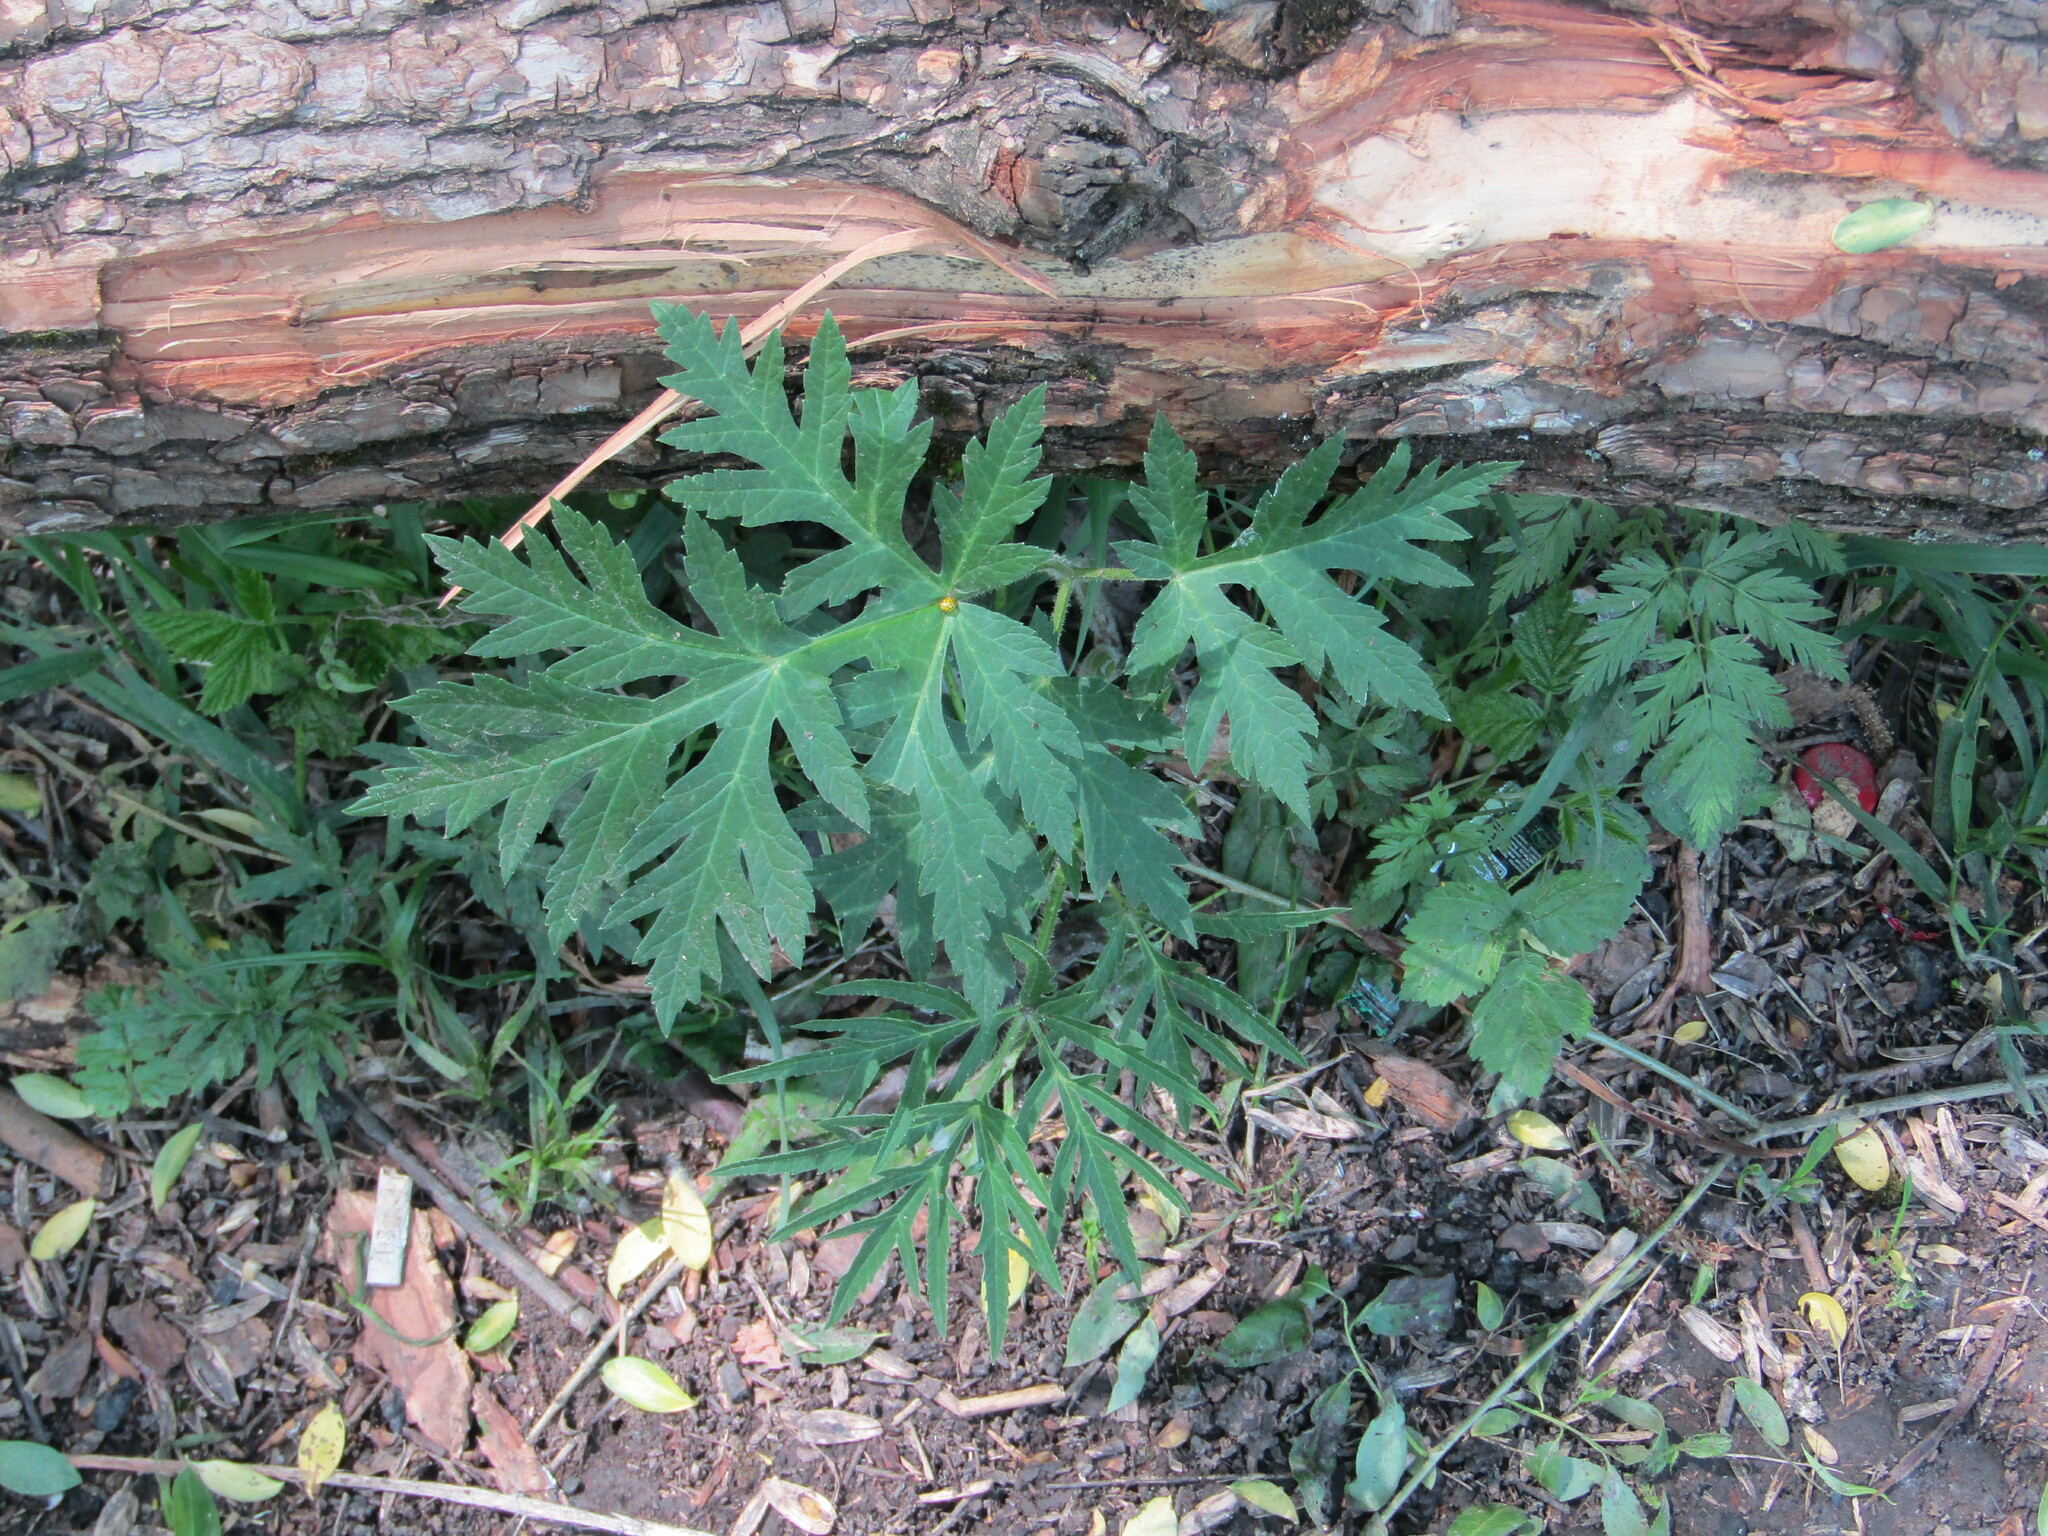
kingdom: Plantae
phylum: Tracheophyta
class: Magnoliopsida
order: Apiales
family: Apiaceae
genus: Heracleum
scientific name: Heracleum sphondylium
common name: Hogweed
